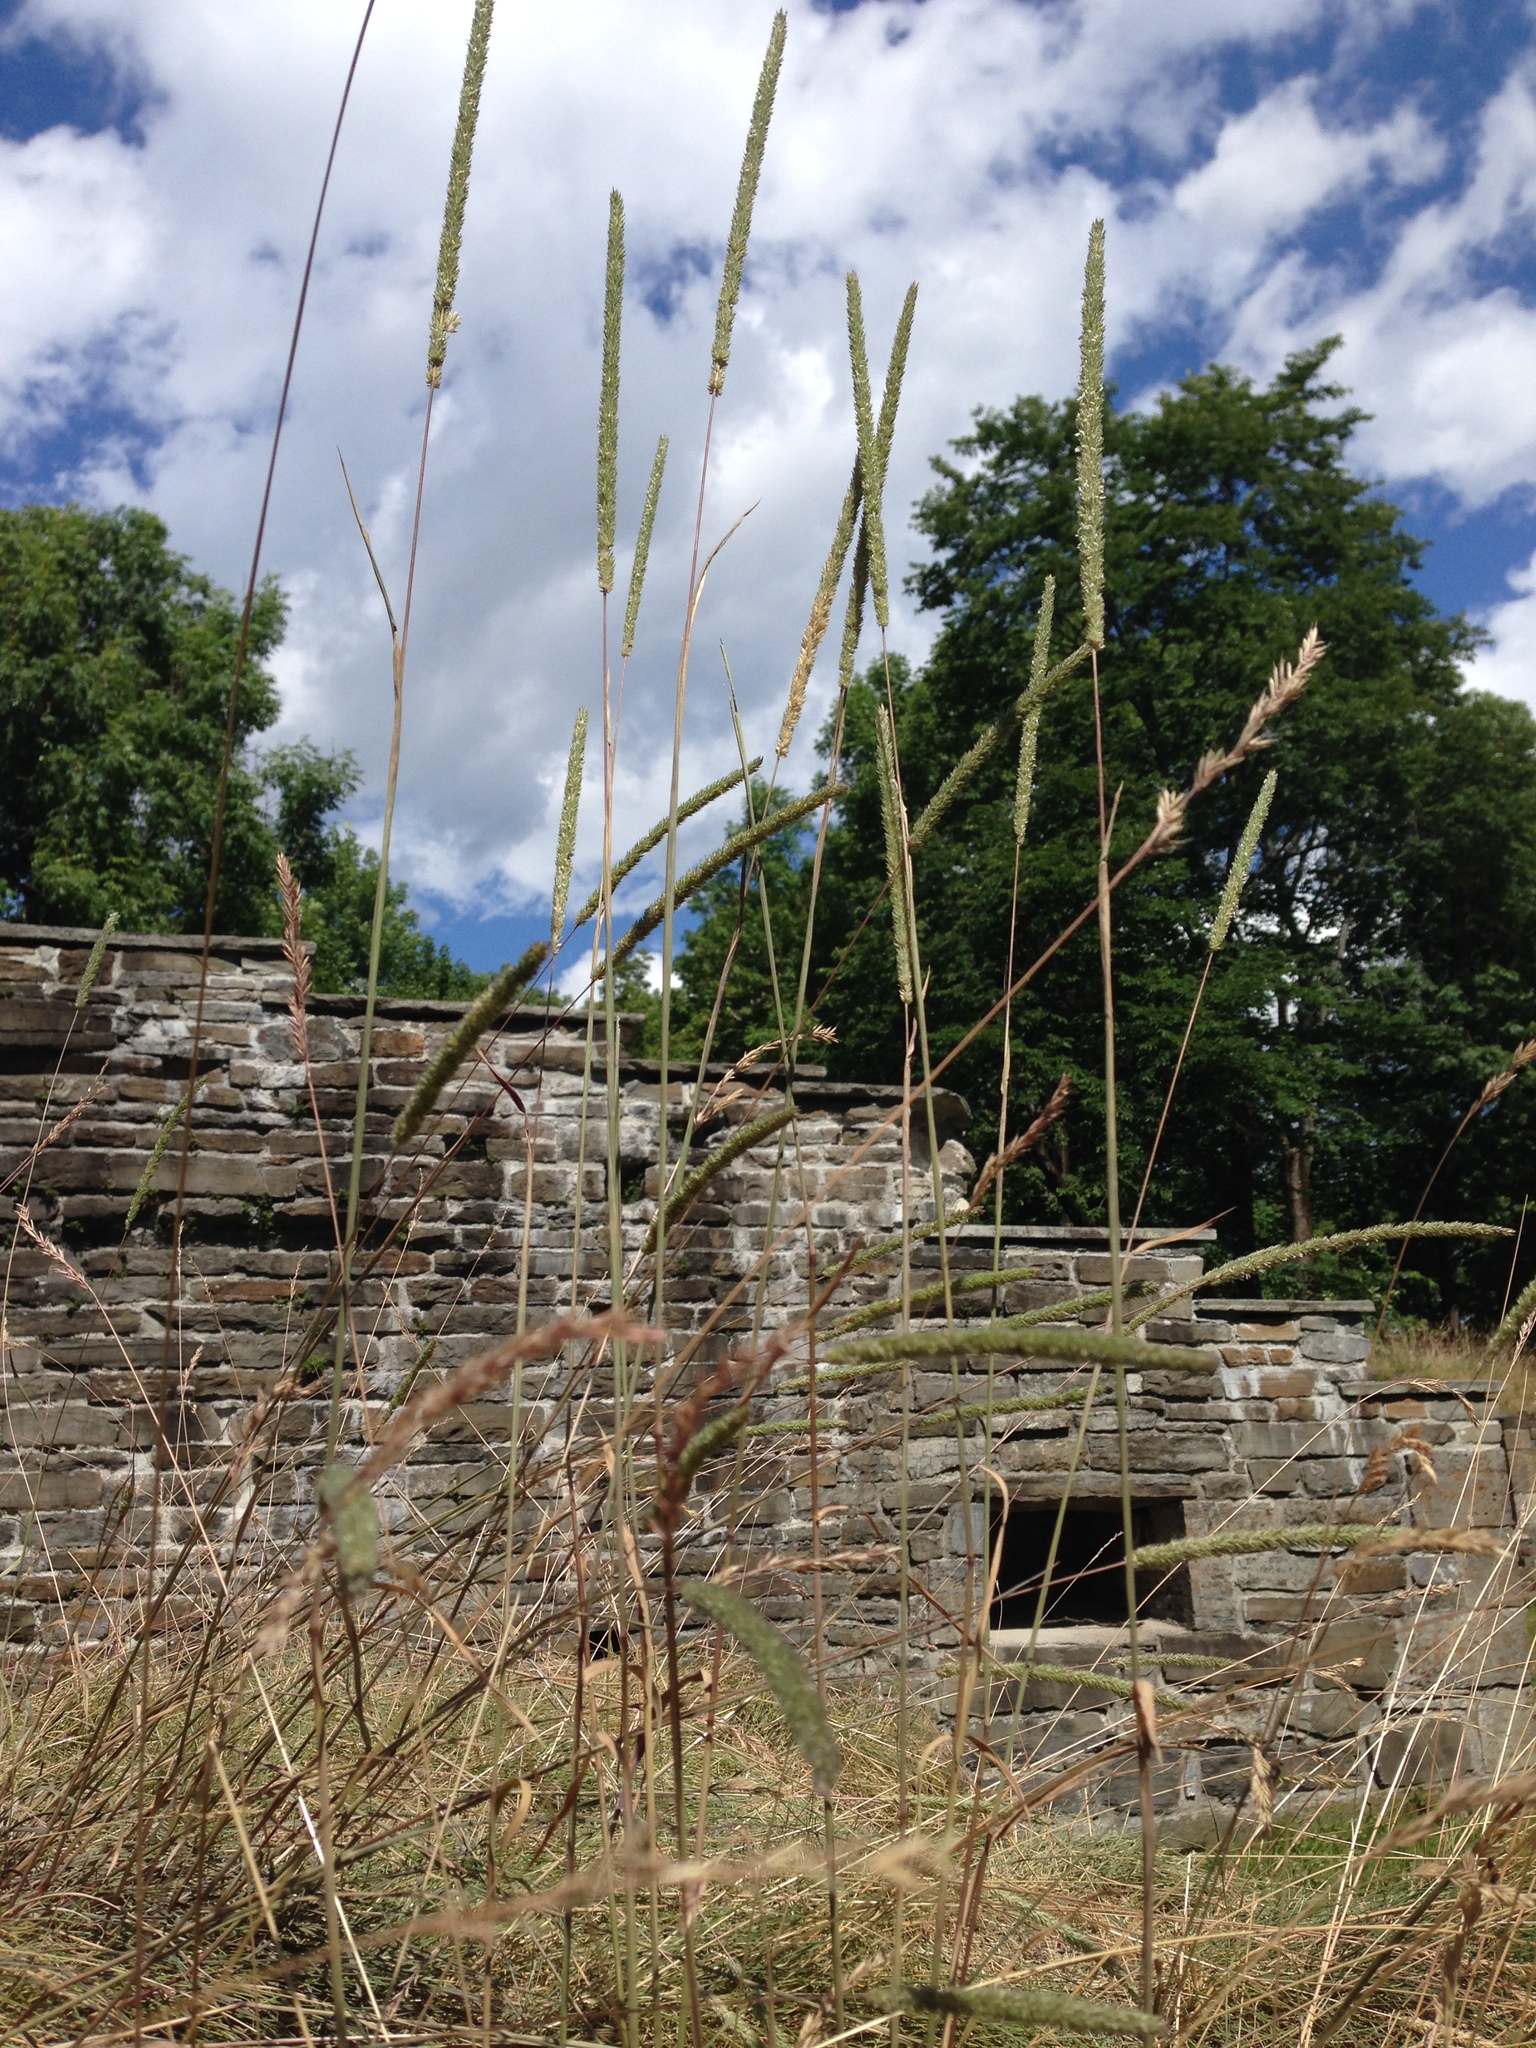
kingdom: Plantae
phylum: Tracheophyta
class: Liliopsida
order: Poales
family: Poaceae
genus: Phleum
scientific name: Phleum pratense
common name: Timothy grass
